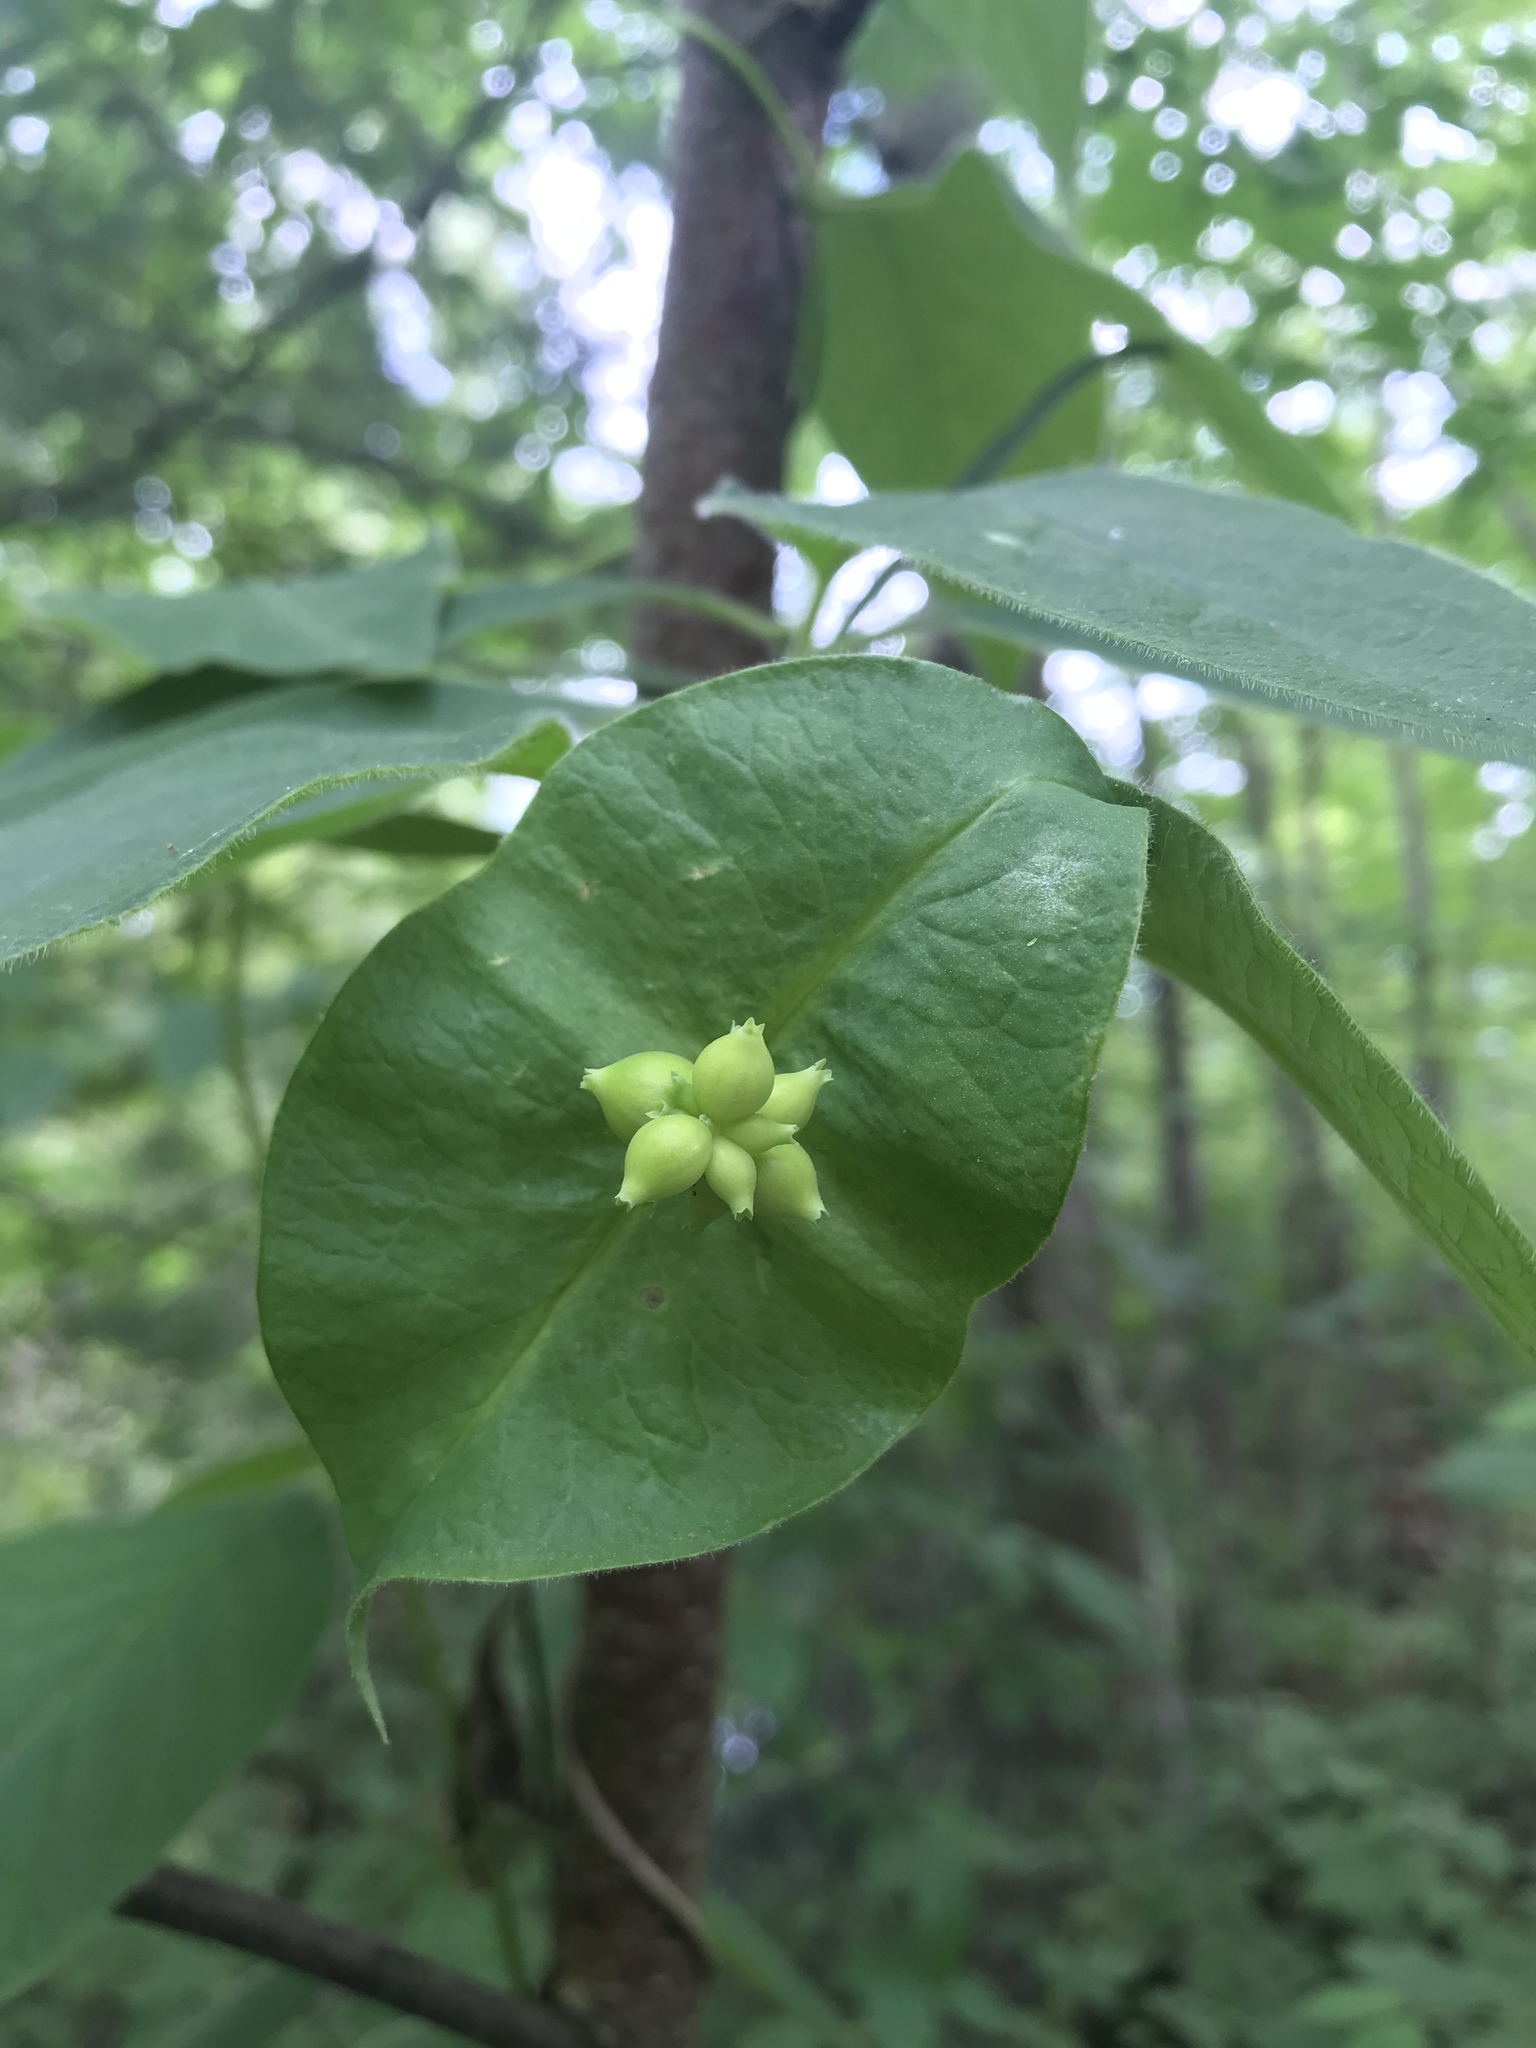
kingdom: Plantae
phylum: Tracheophyta
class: Magnoliopsida
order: Dipsacales
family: Caprifoliaceae
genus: Lonicera
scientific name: Lonicera dioica
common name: Limber honeysuckle
